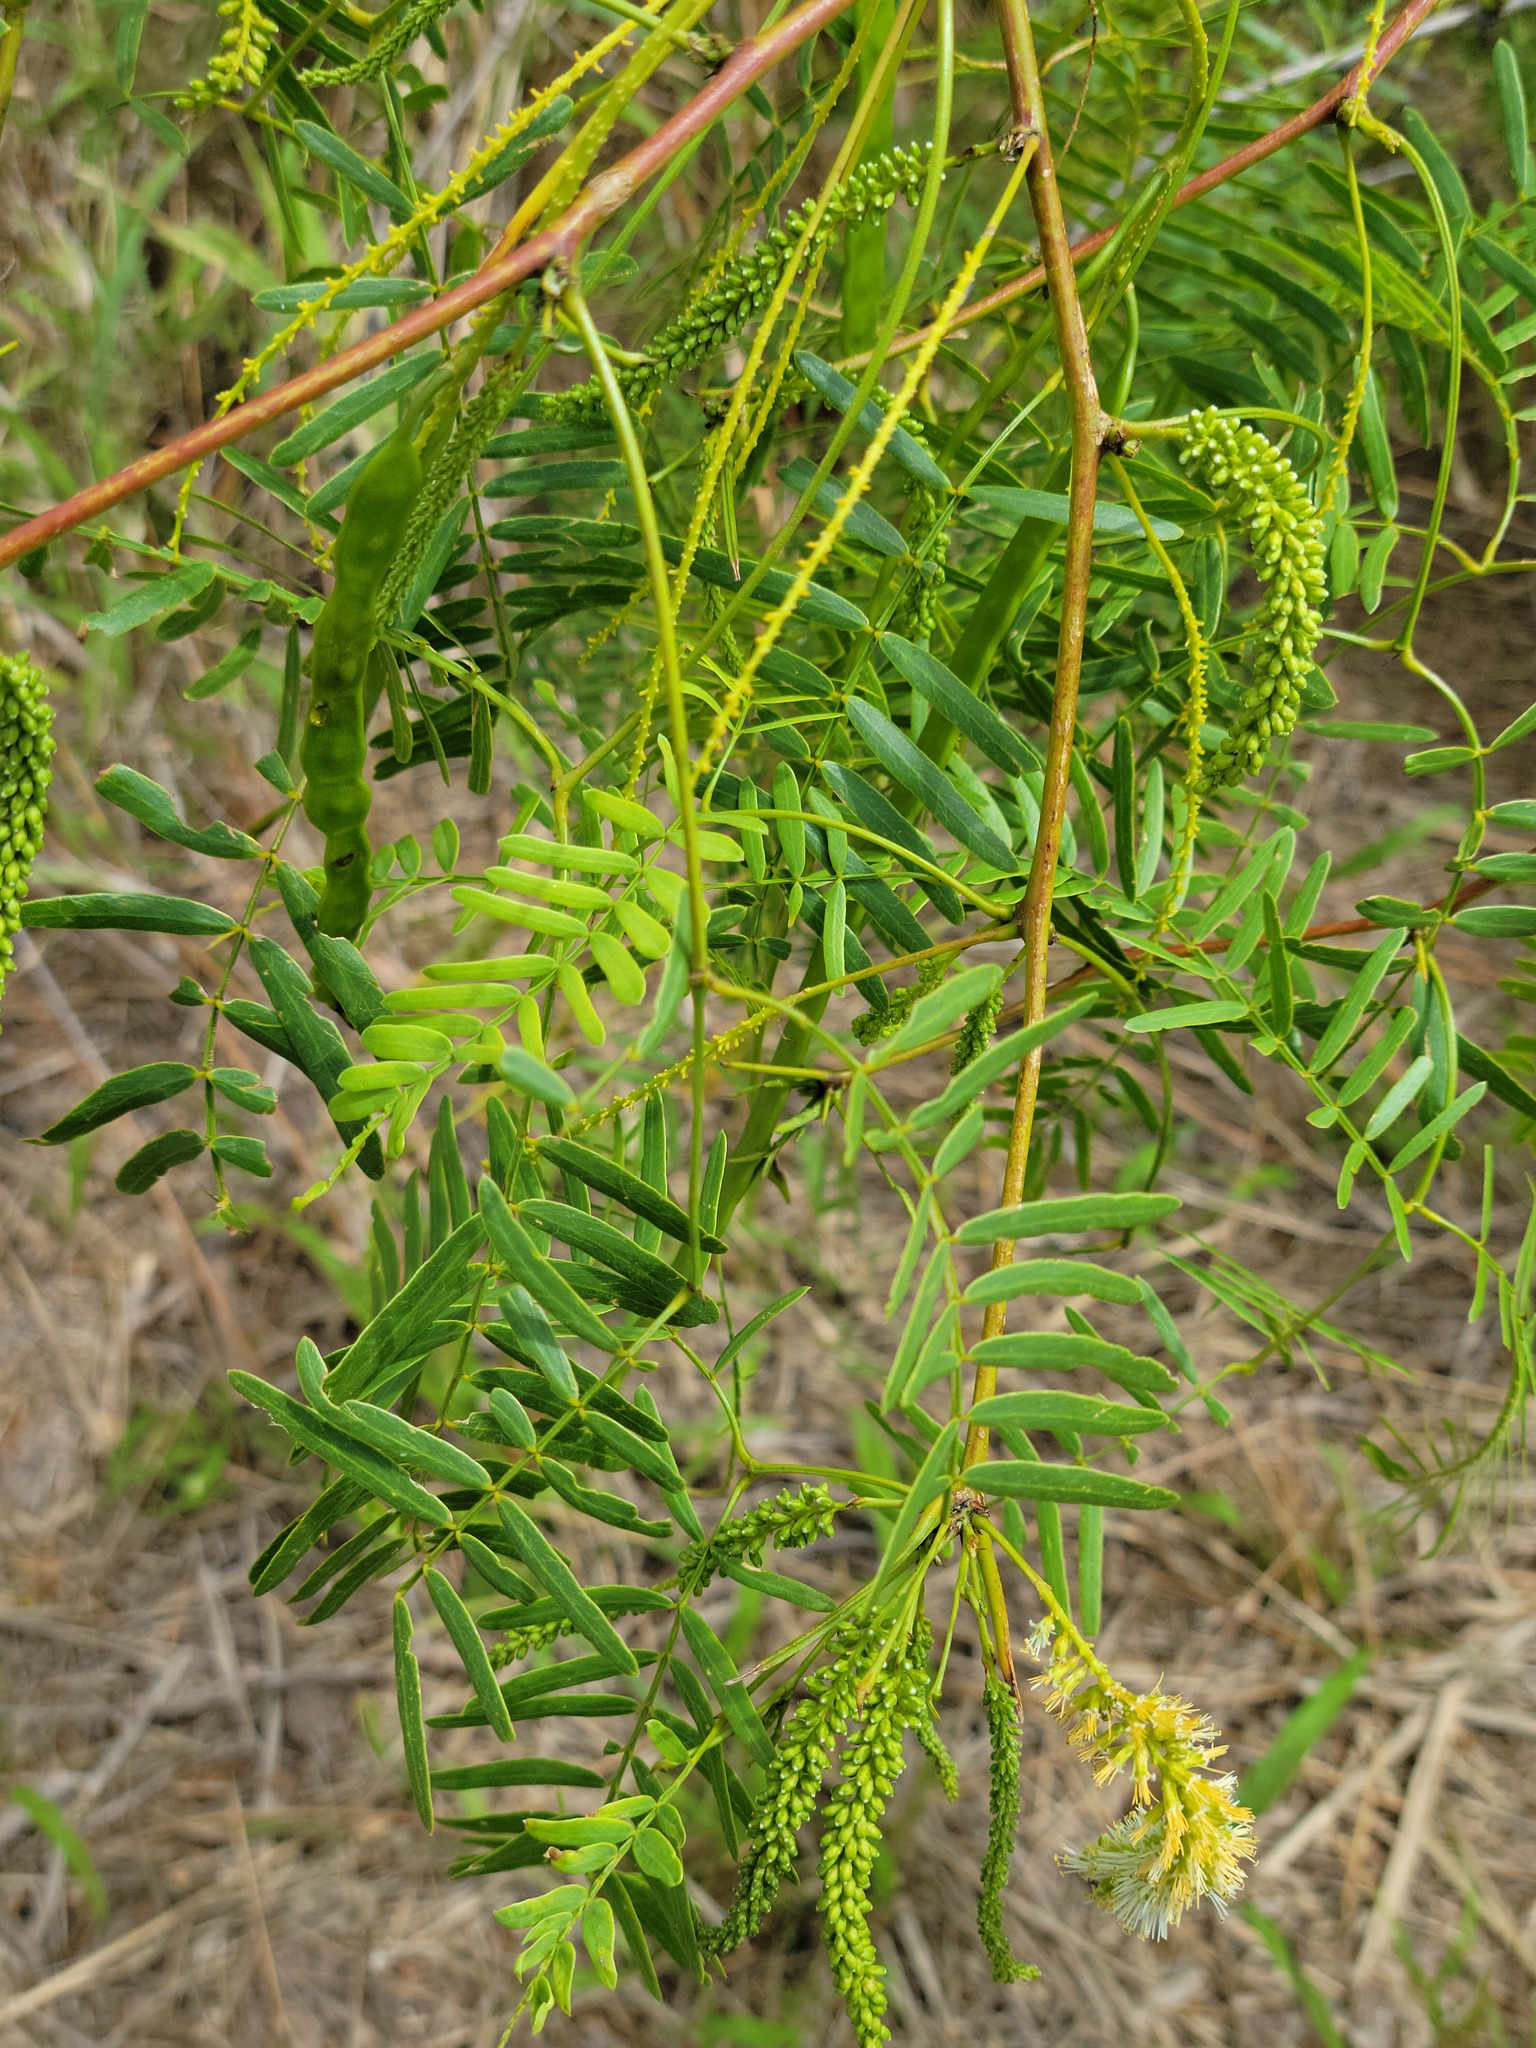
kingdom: Plantae
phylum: Tracheophyta
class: Magnoliopsida
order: Fabales
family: Fabaceae
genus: Prosopis
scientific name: Prosopis glandulosa
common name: Honey mesquite
